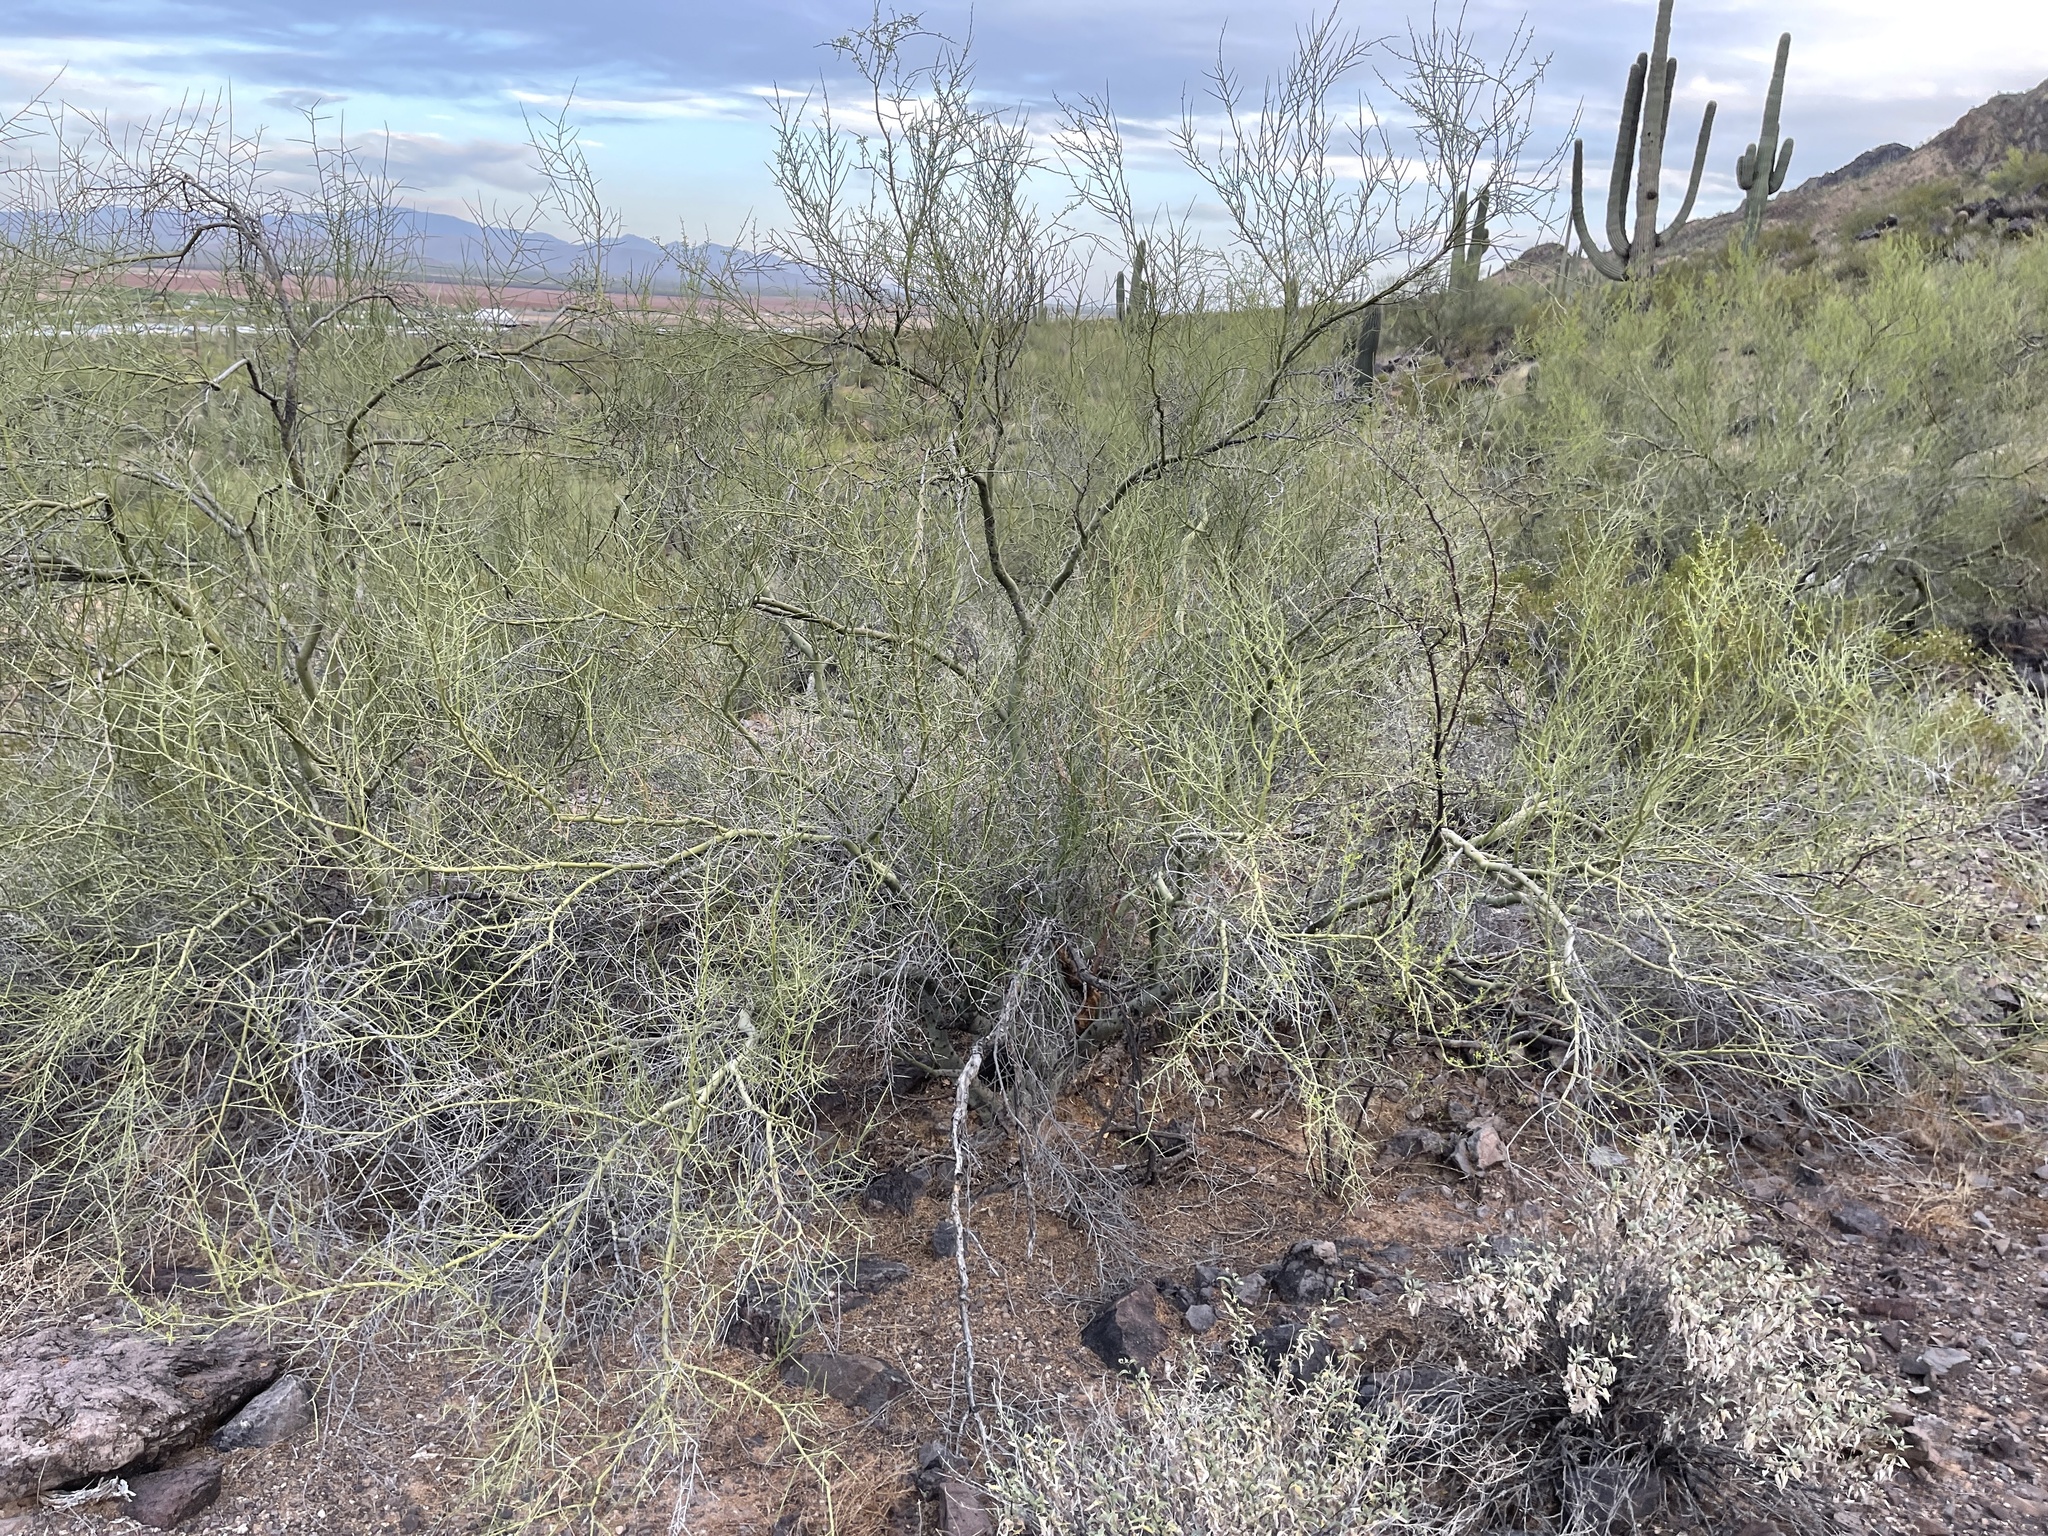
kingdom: Plantae
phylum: Tracheophyta
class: Magnoliopsida
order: Fabales
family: Fabaceae
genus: Parkinsonia
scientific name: Parkinsonia microphylla
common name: Yellow paloverde
